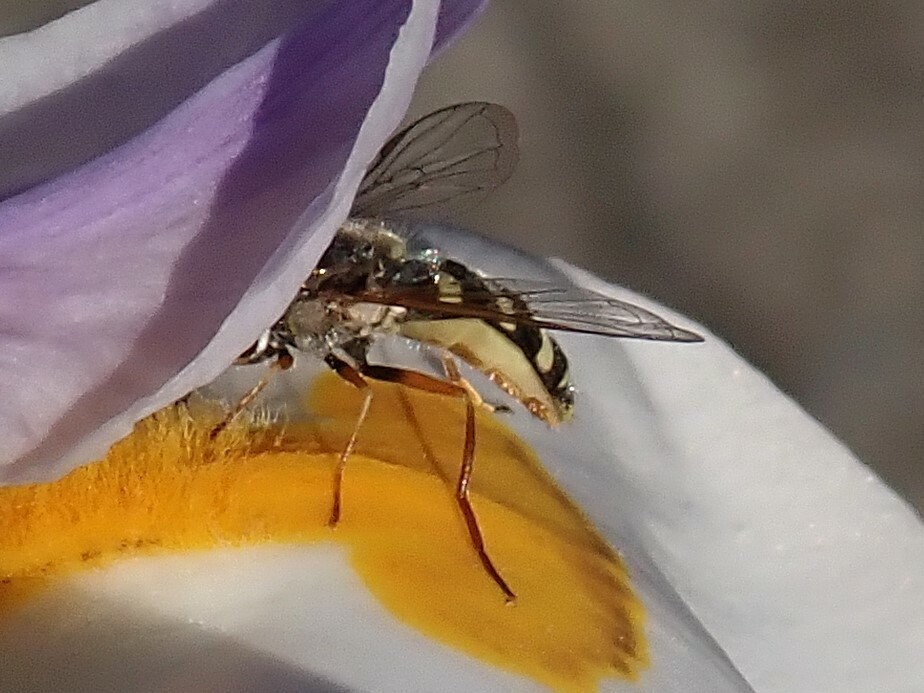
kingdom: Animalia
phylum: Arthropoda
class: Insecta
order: Diptera
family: Syrphidae
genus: Eupeodes
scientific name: Eupeodes volucris
